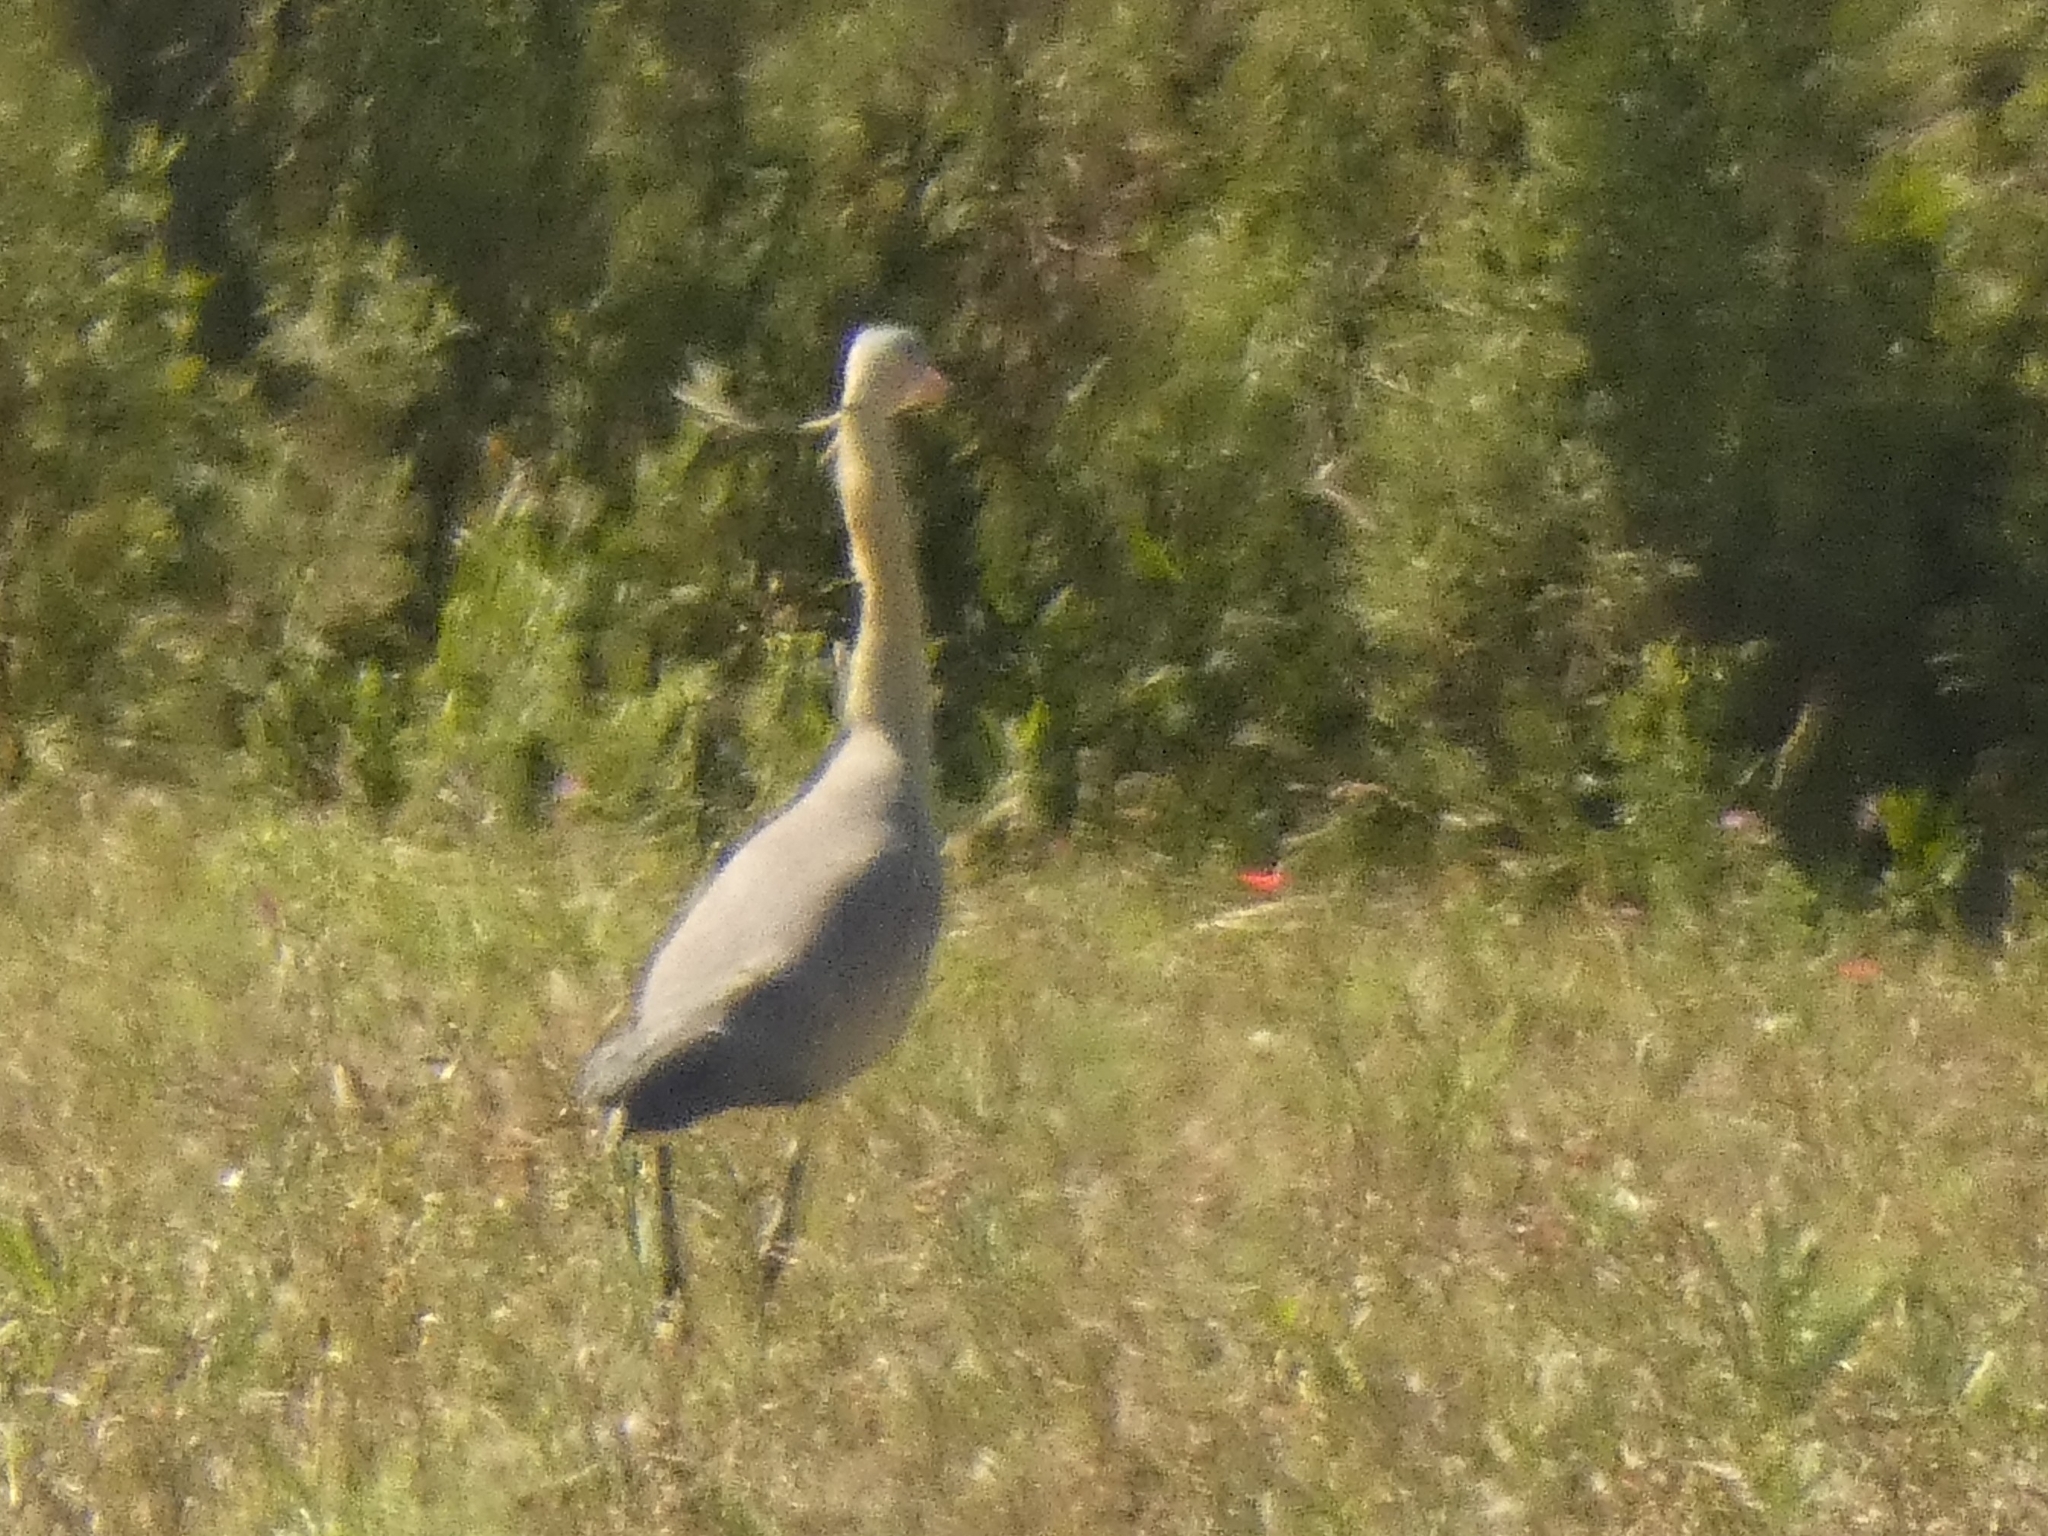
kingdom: Animalia
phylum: Chordata
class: Aves
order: Pelecaniformes
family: Ardeidae
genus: Syrigma
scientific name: Syrigma sibilatrix
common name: Whistling heron
